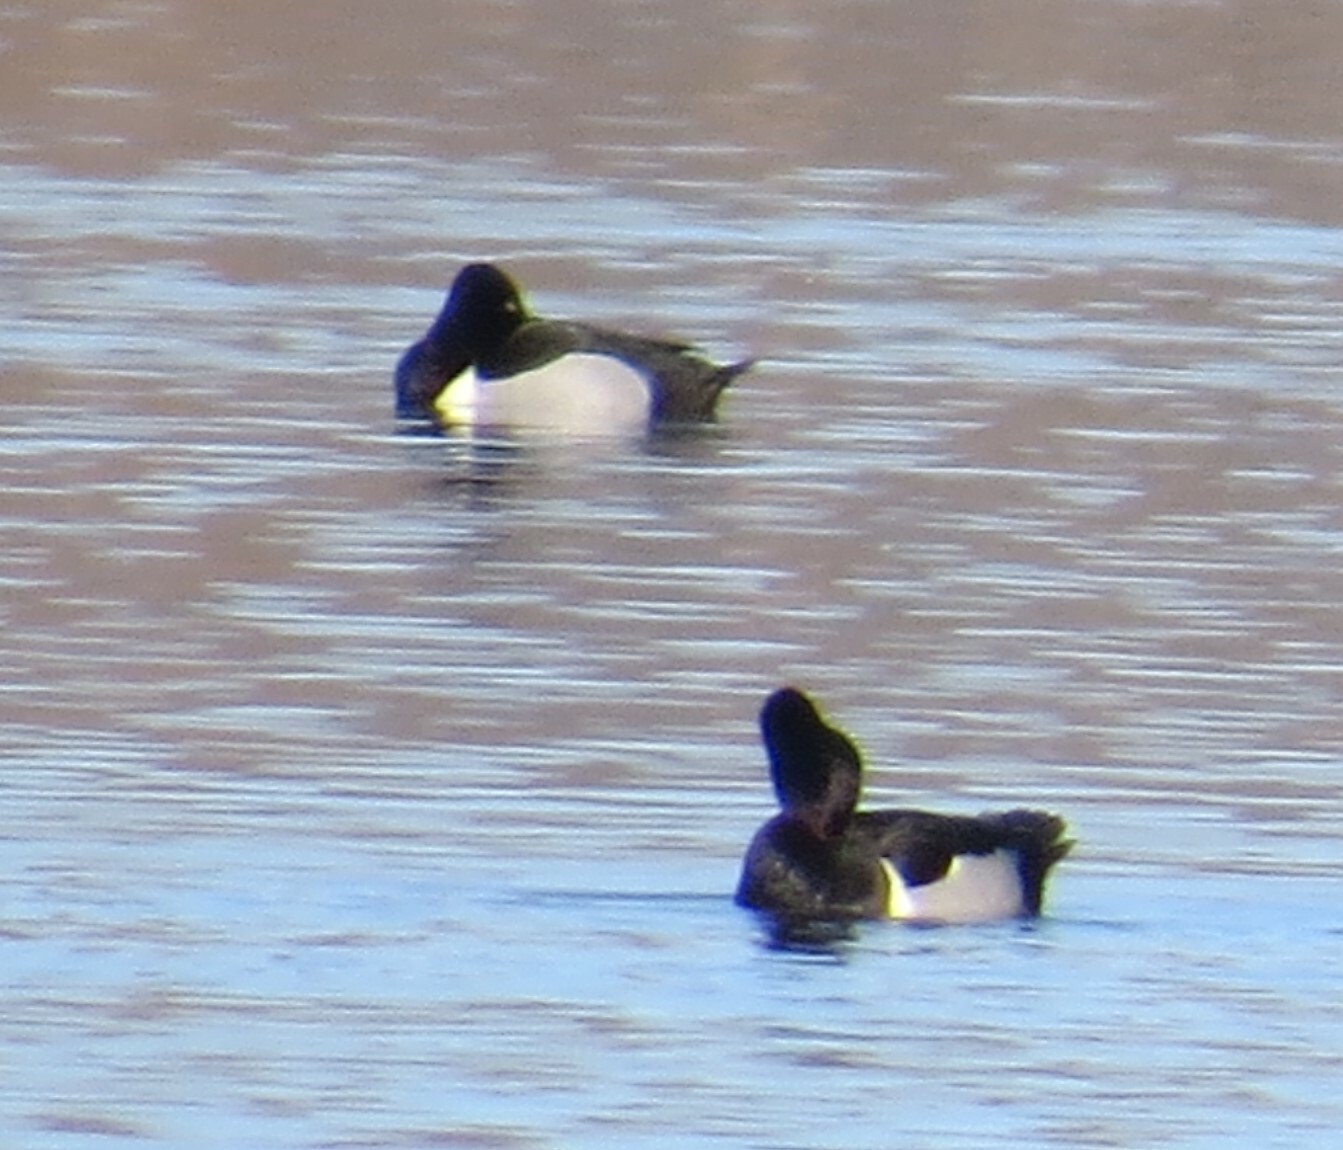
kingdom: Animalia
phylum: Chordata
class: Aves
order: Anseriformes
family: Anatidae
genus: Aythya
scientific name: Aythya collaris
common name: Ring-necked duck
